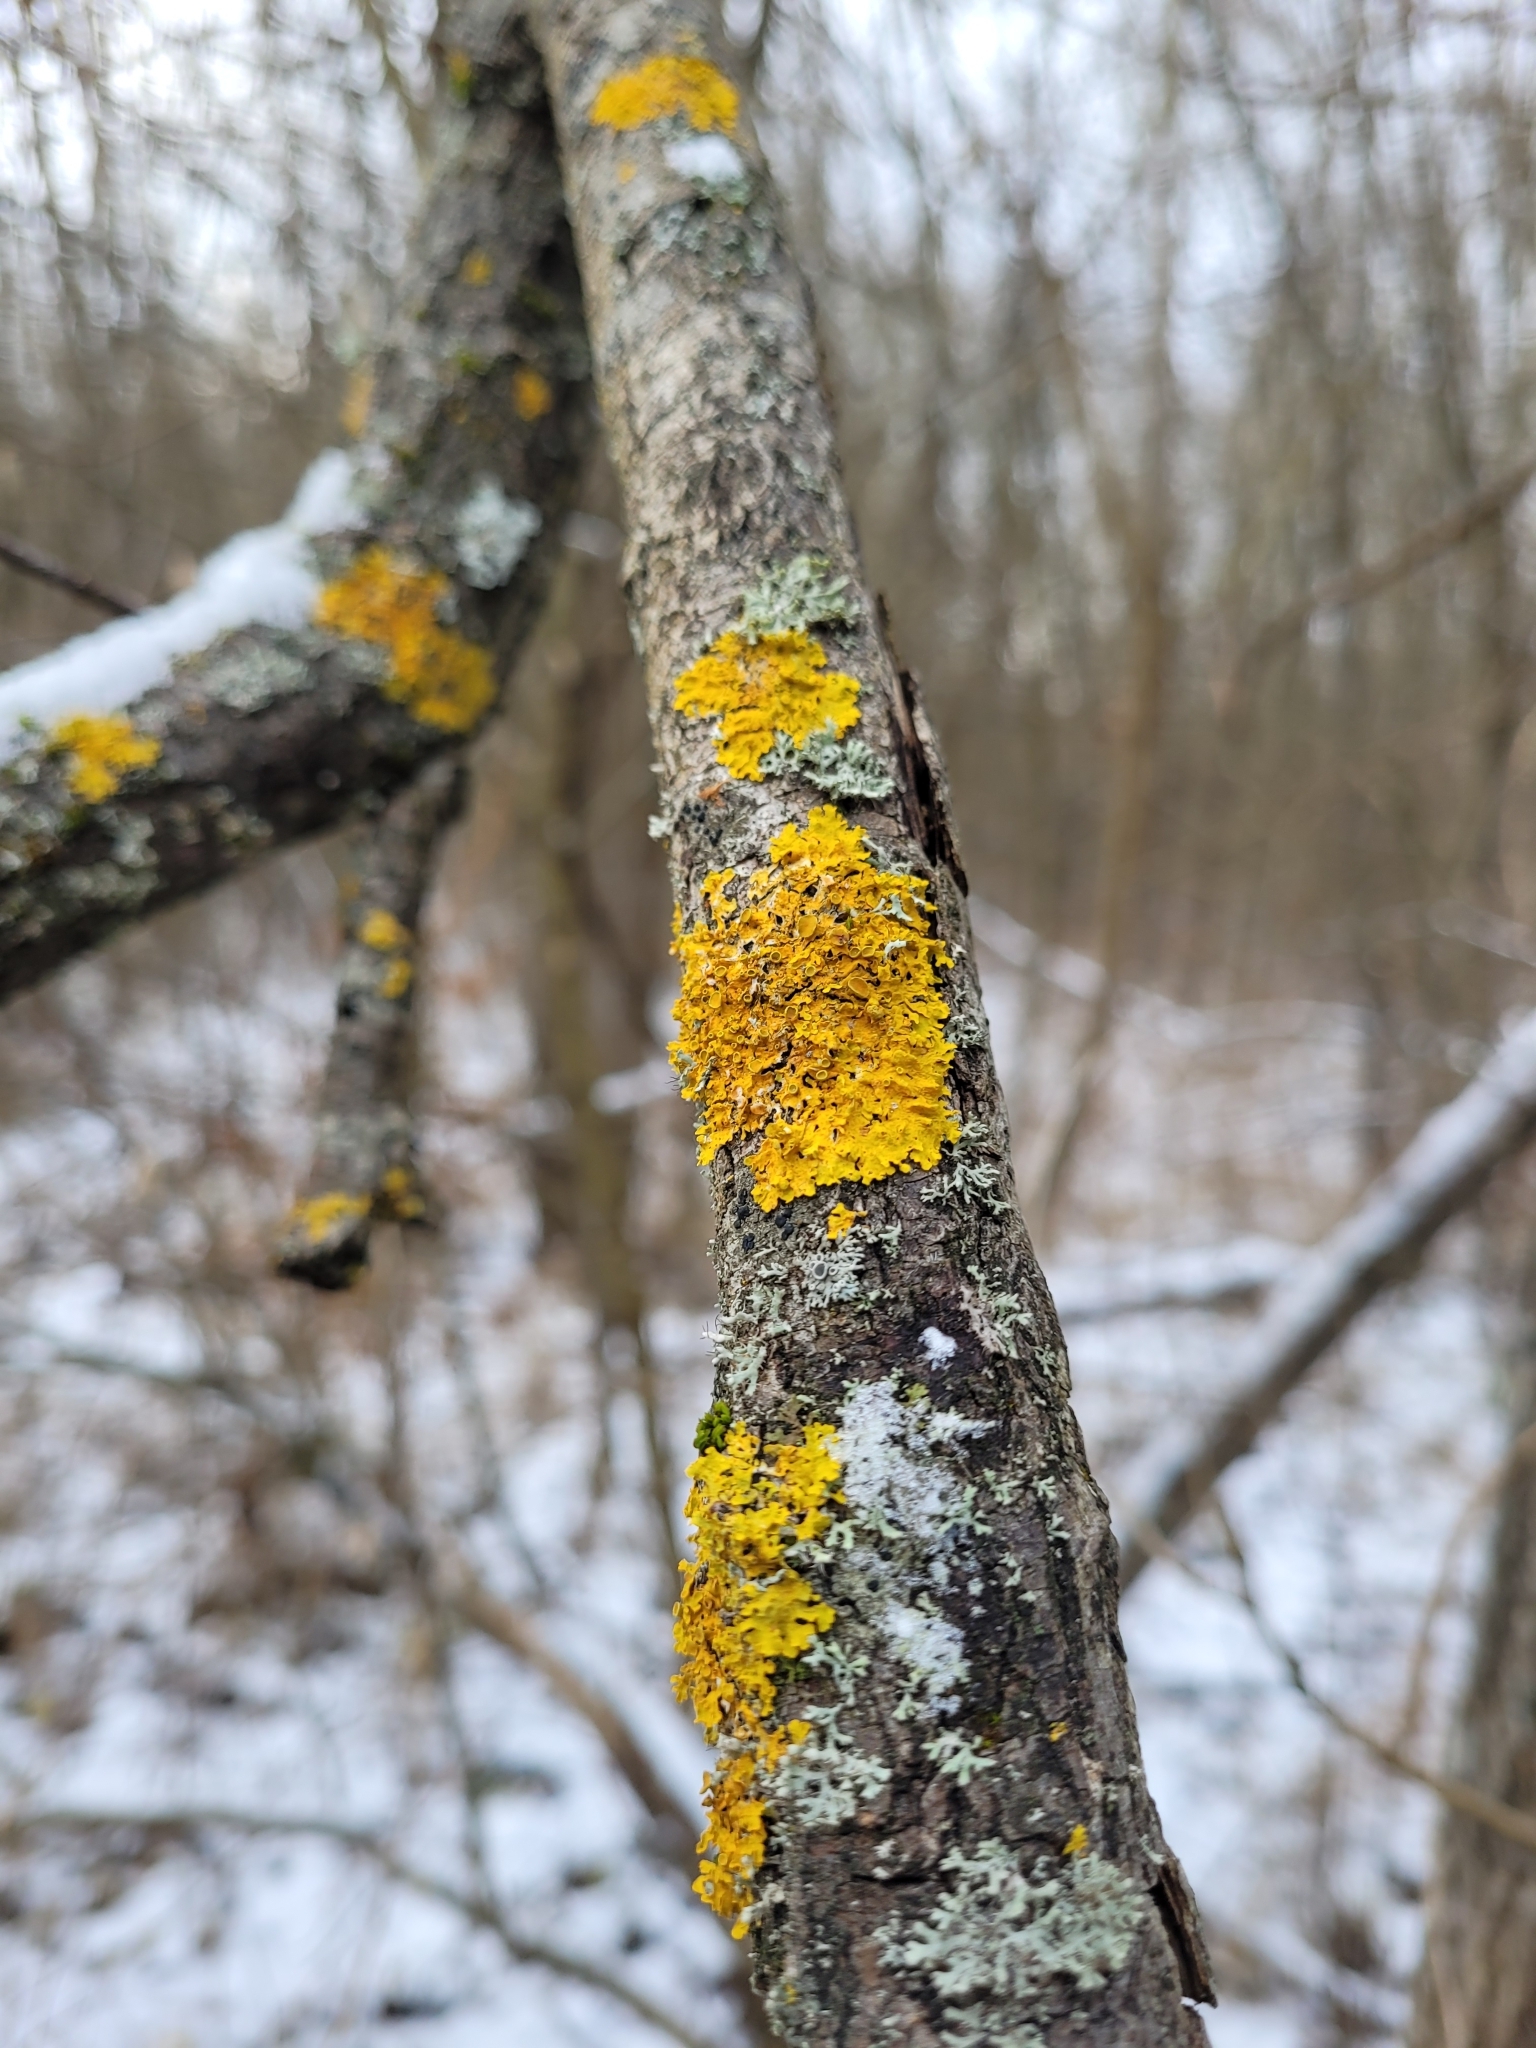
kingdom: Fungi
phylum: Ascomycota
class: Lecanoromycetes
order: Teloschistales
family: Teloschistaceae
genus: Xanthoria
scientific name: Xanthoria parietina
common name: Common orange lichen
